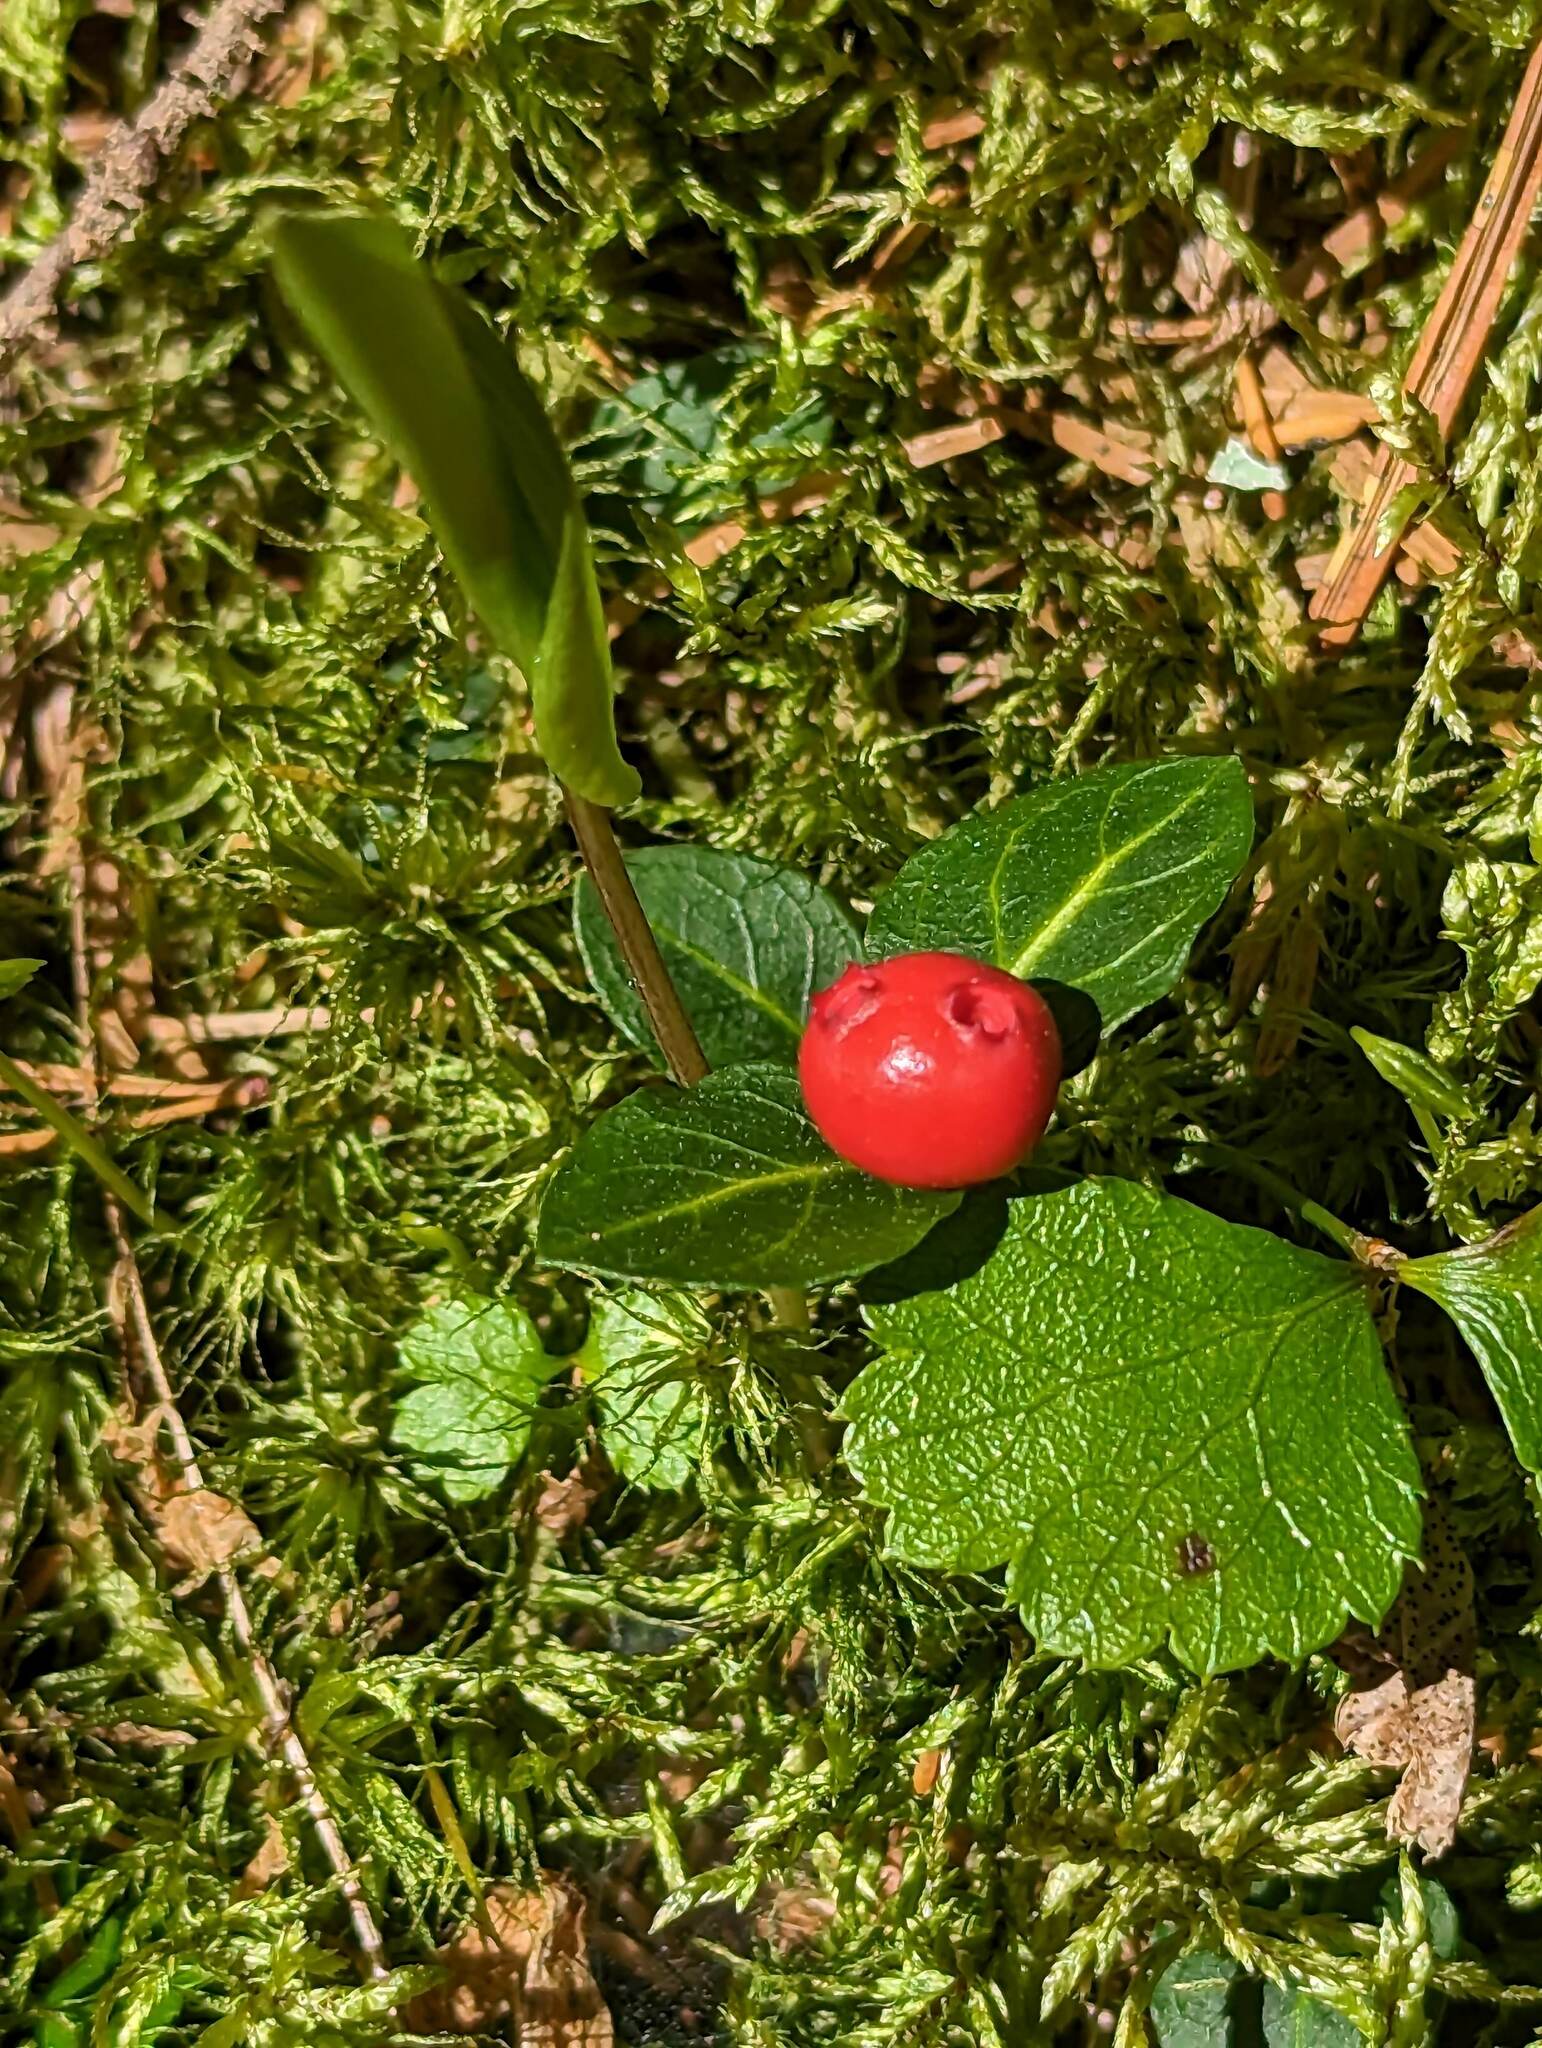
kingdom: Plantae
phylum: Tracheophyta
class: Magnoliopsida
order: Gentianales
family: Rubiaceae
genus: Mitchella
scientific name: Mitchella repens
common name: Partridge-berry
